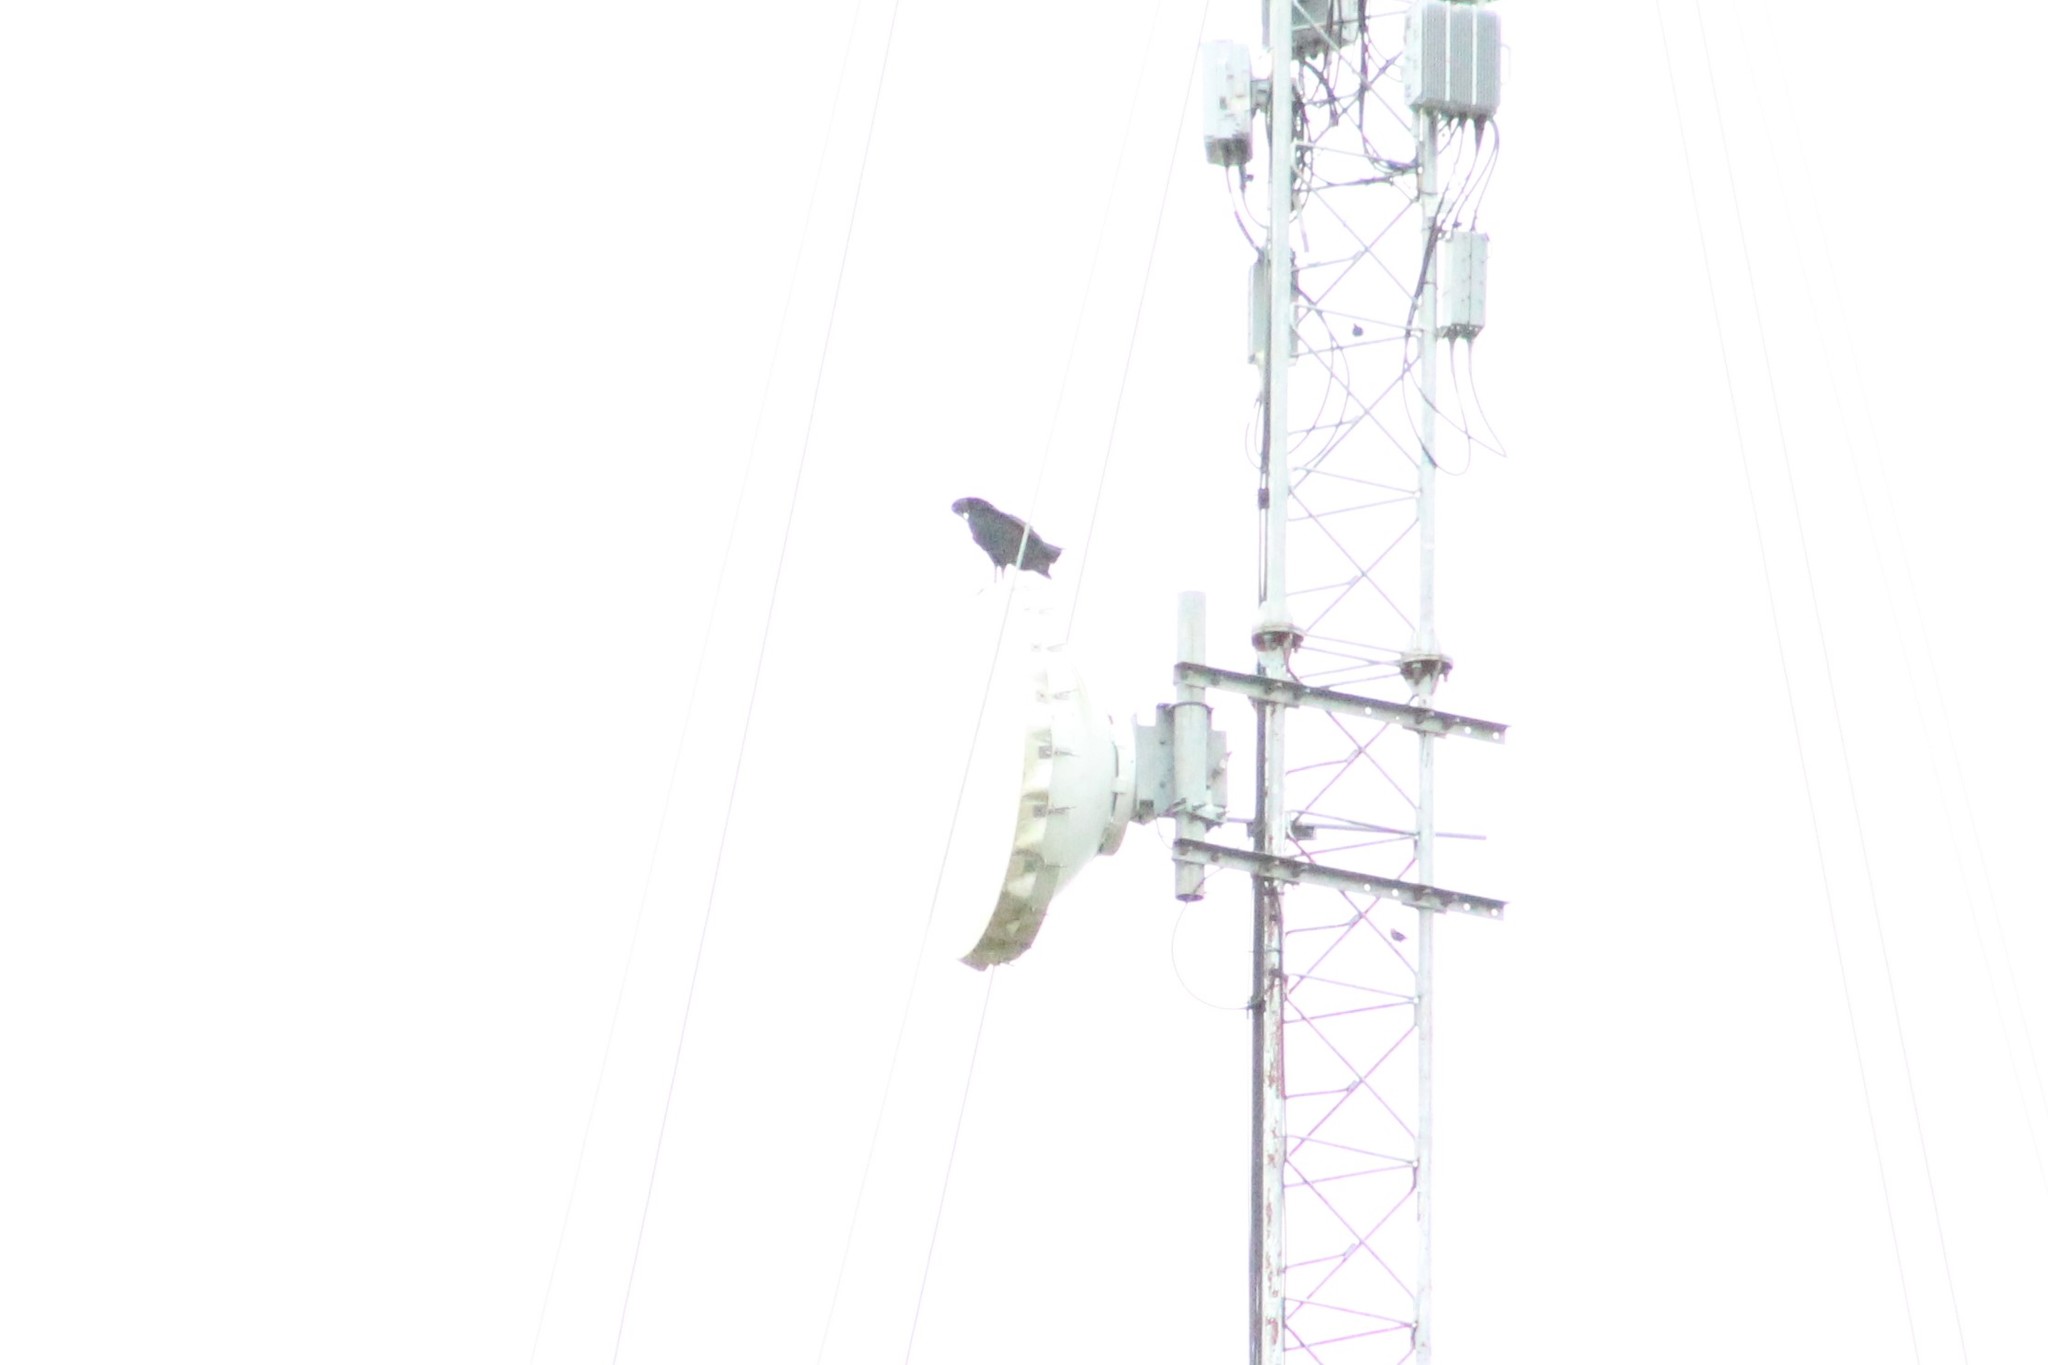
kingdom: Animalia
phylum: Chordata
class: Aves
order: Accipitriformes
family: Cathartidae
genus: Coragyps
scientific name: Coragyps atratus
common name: Black vulture
